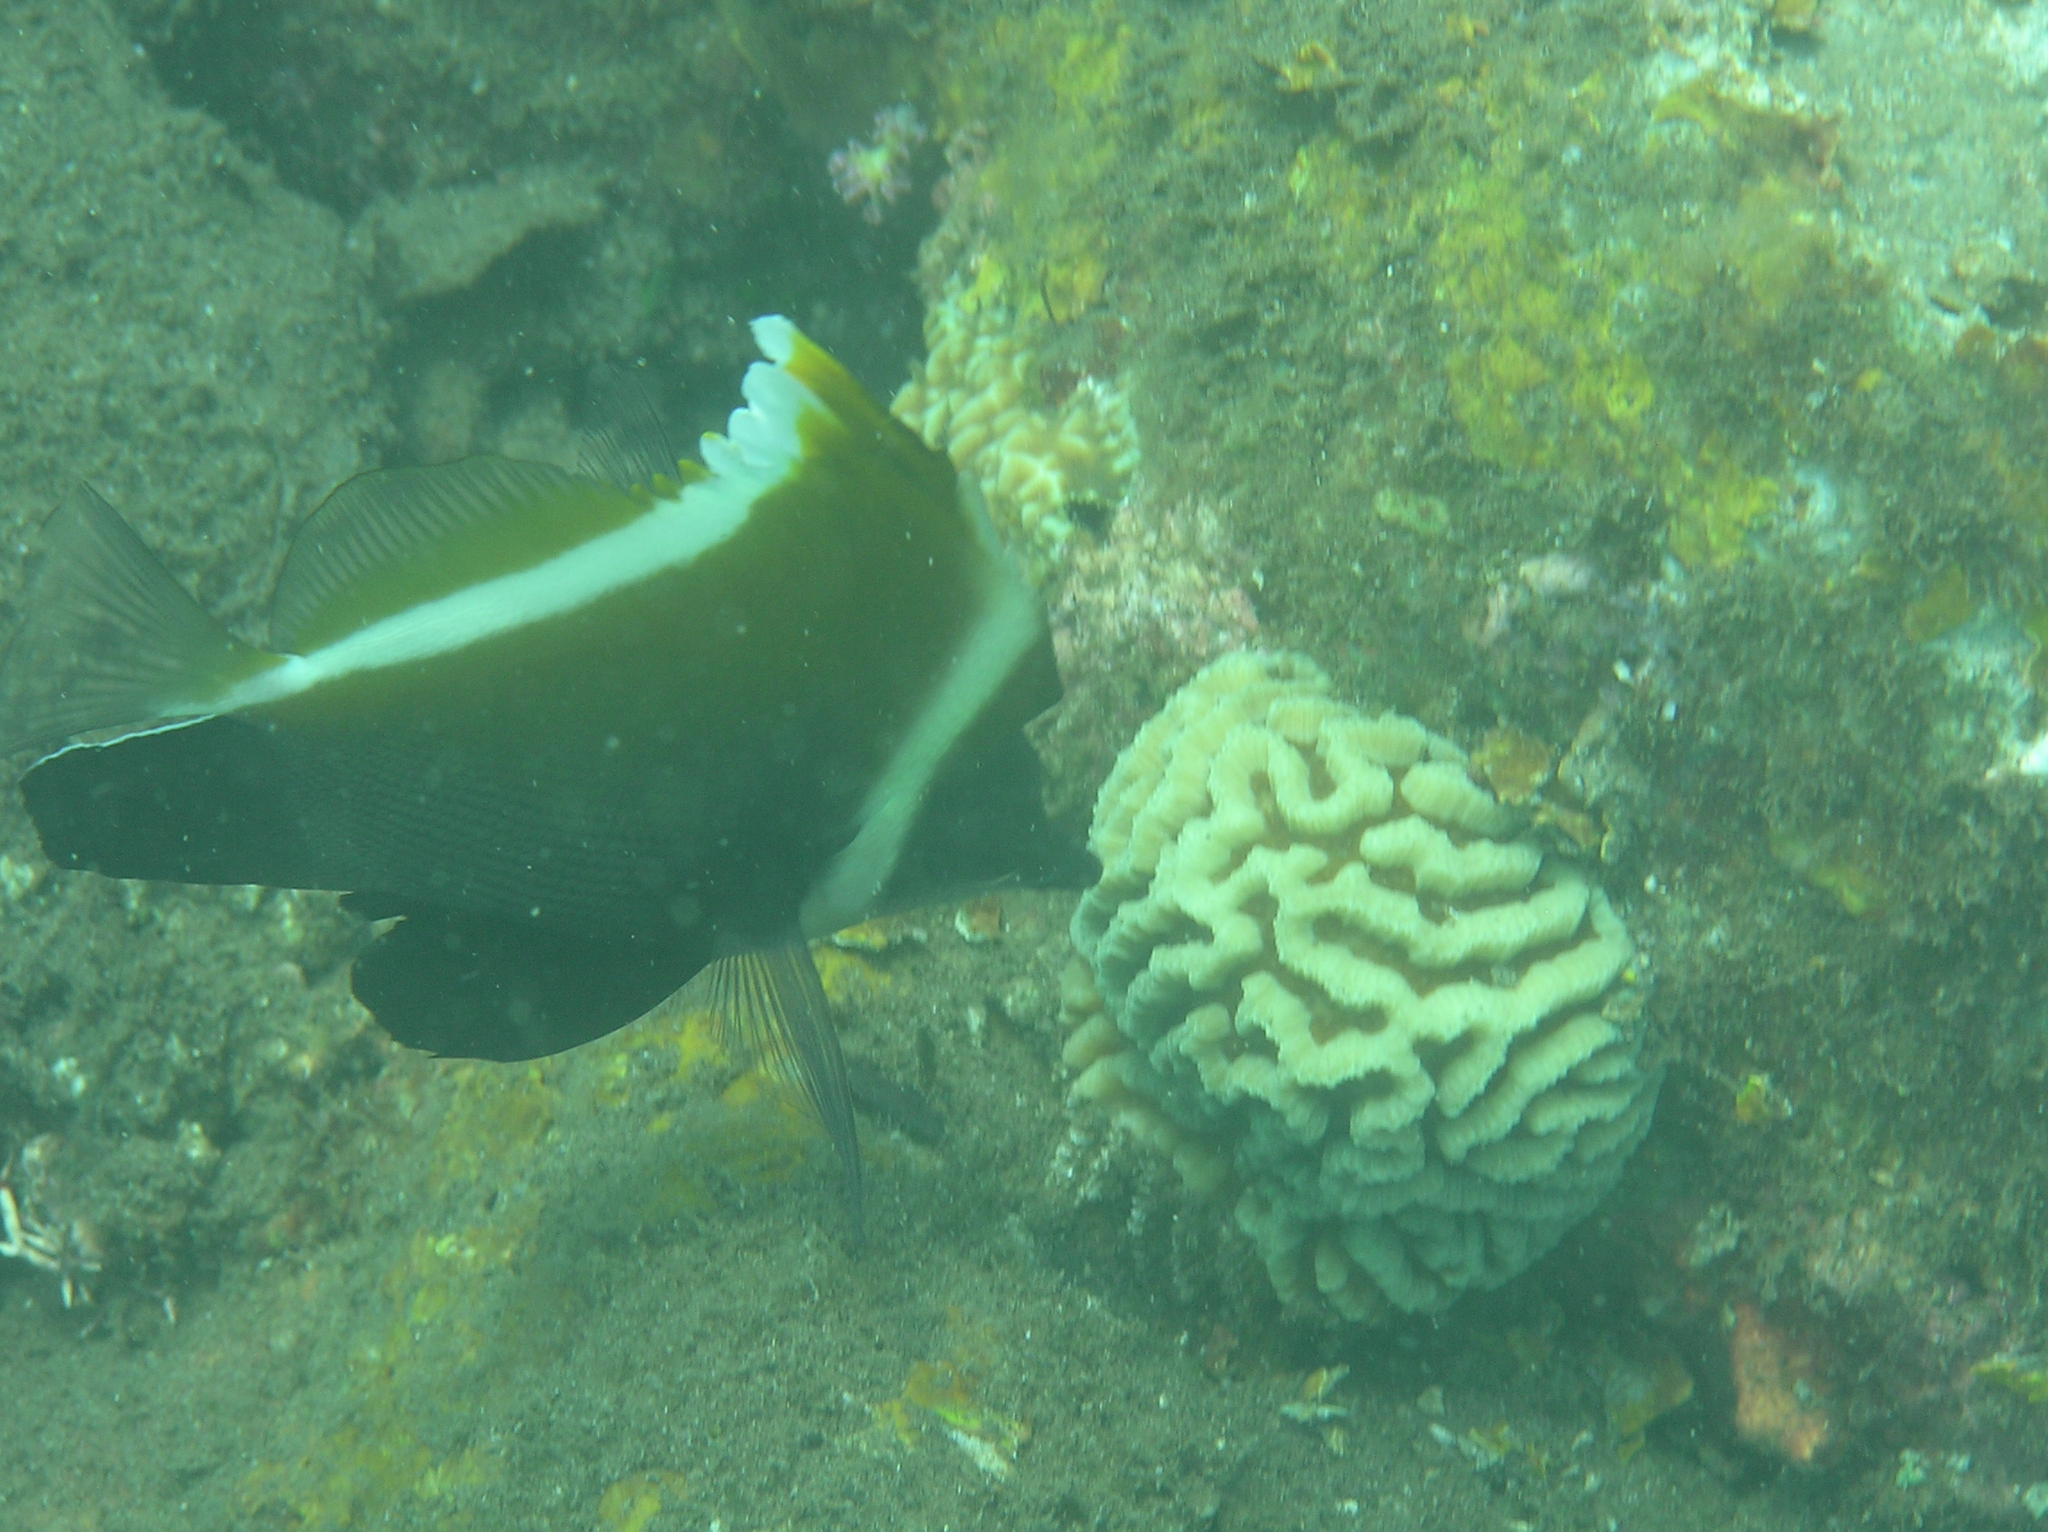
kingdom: Animalia
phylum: Chordata
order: Perciformes
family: Chaetodontidae
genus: Heniochus
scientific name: Heniochus varius
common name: Horned bannerfish
